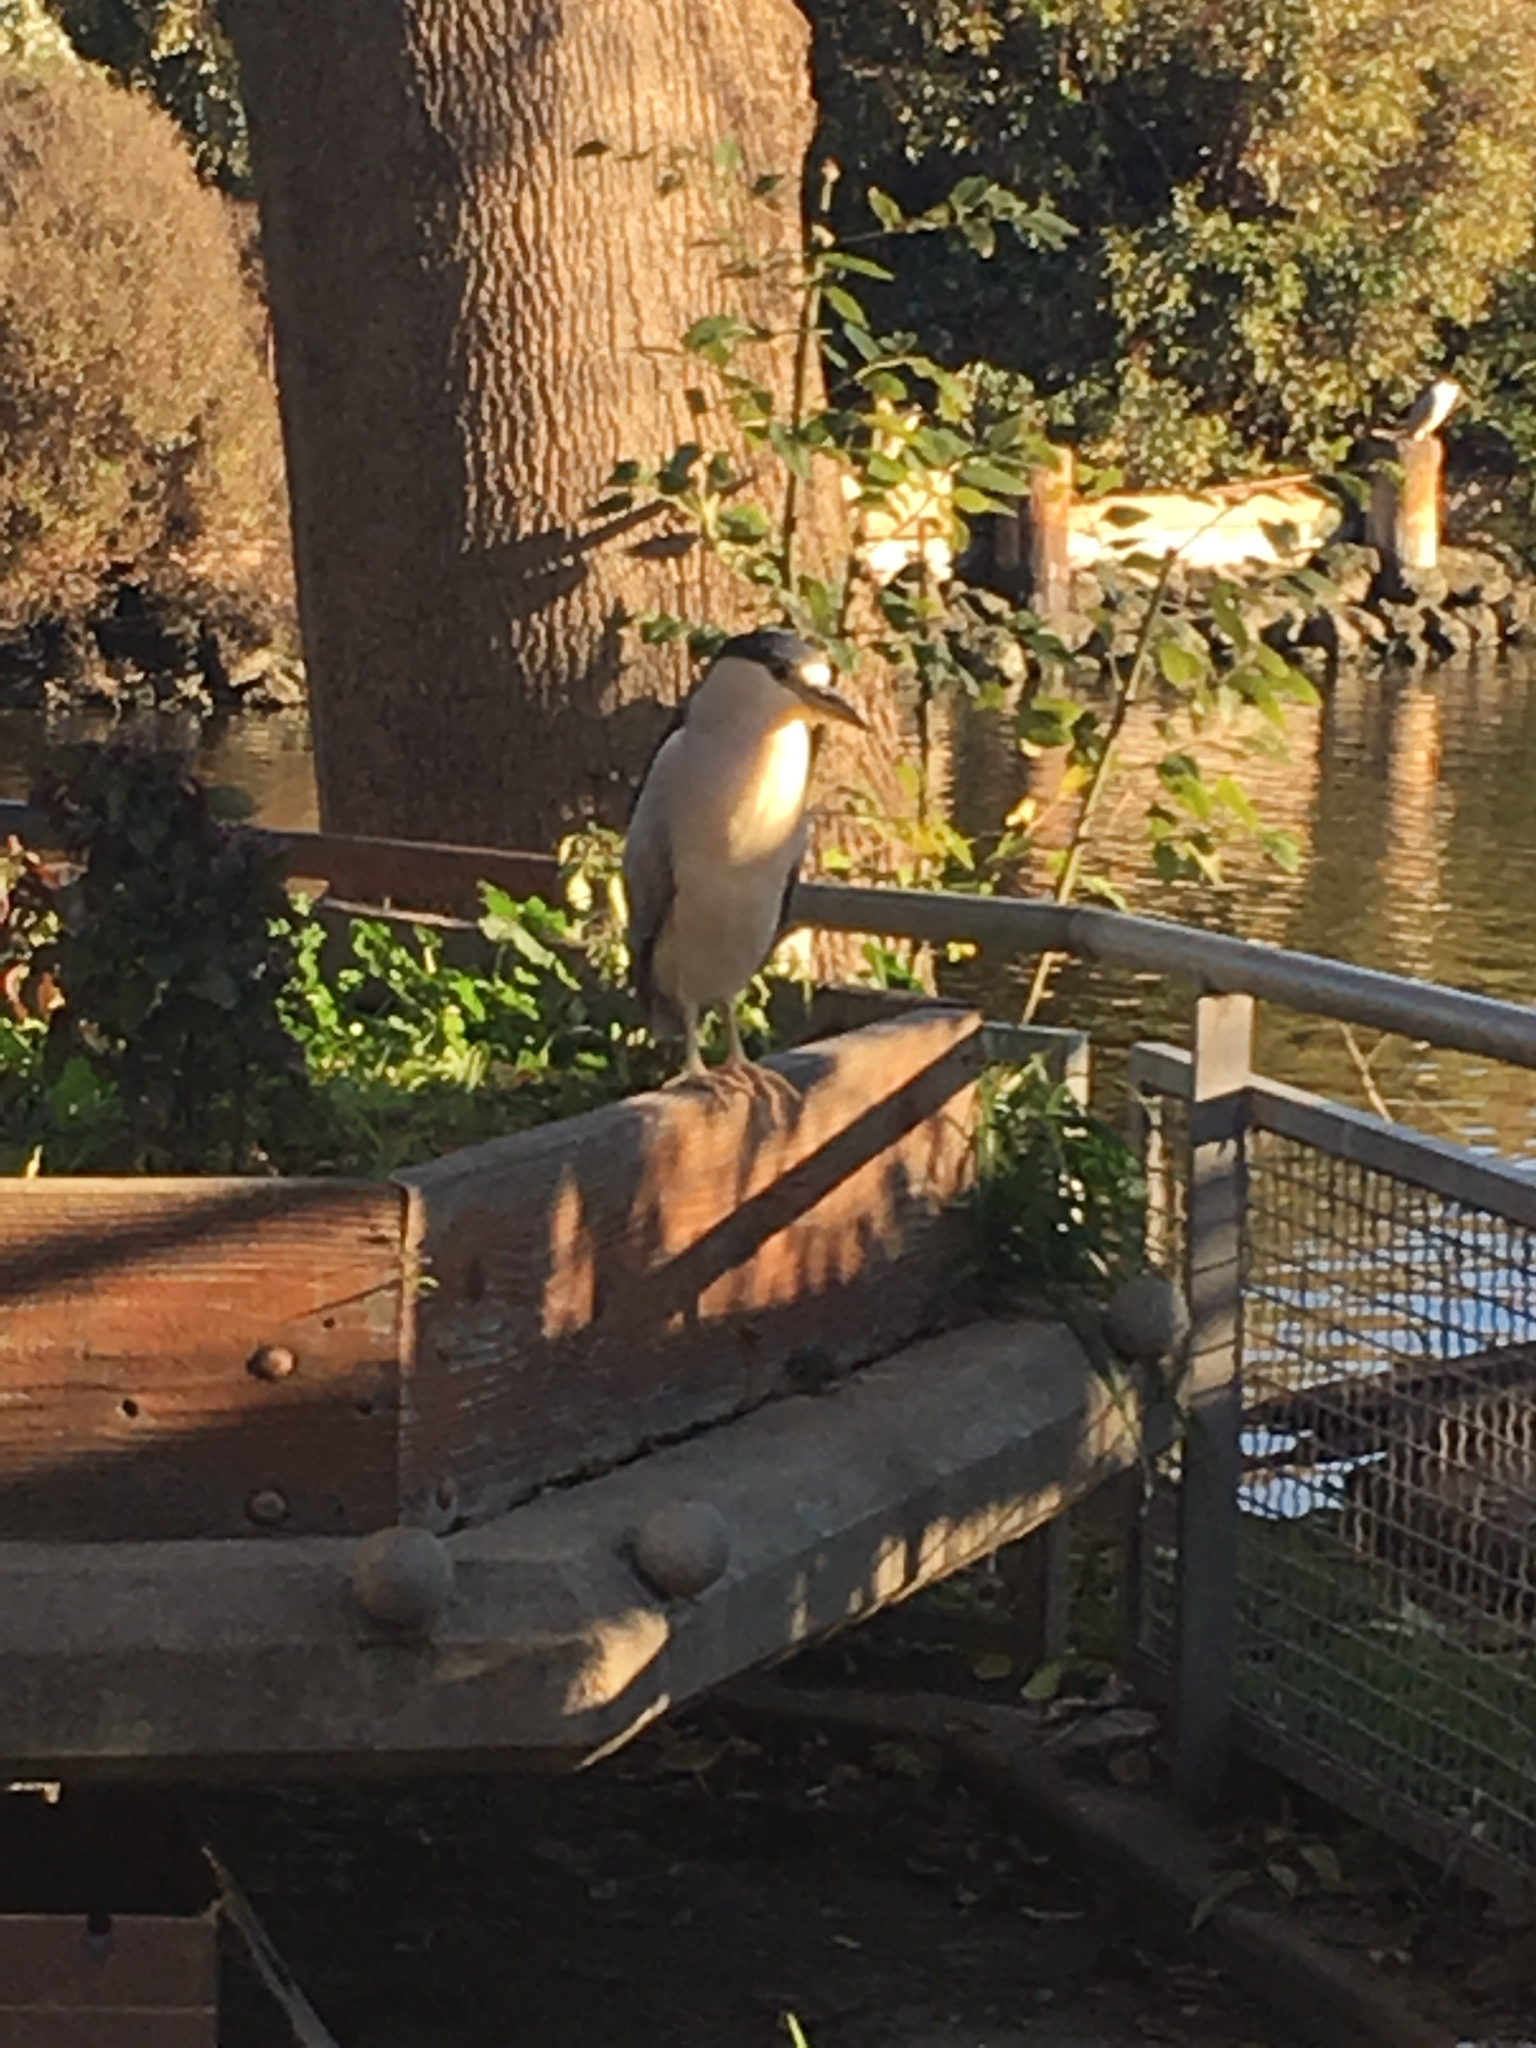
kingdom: Animalia
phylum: Chordata
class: Aves
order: Pelecaniformes
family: Ardeidae
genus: Nycticorax
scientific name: Nycticorax nycticorax
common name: Black-crowned night heron
